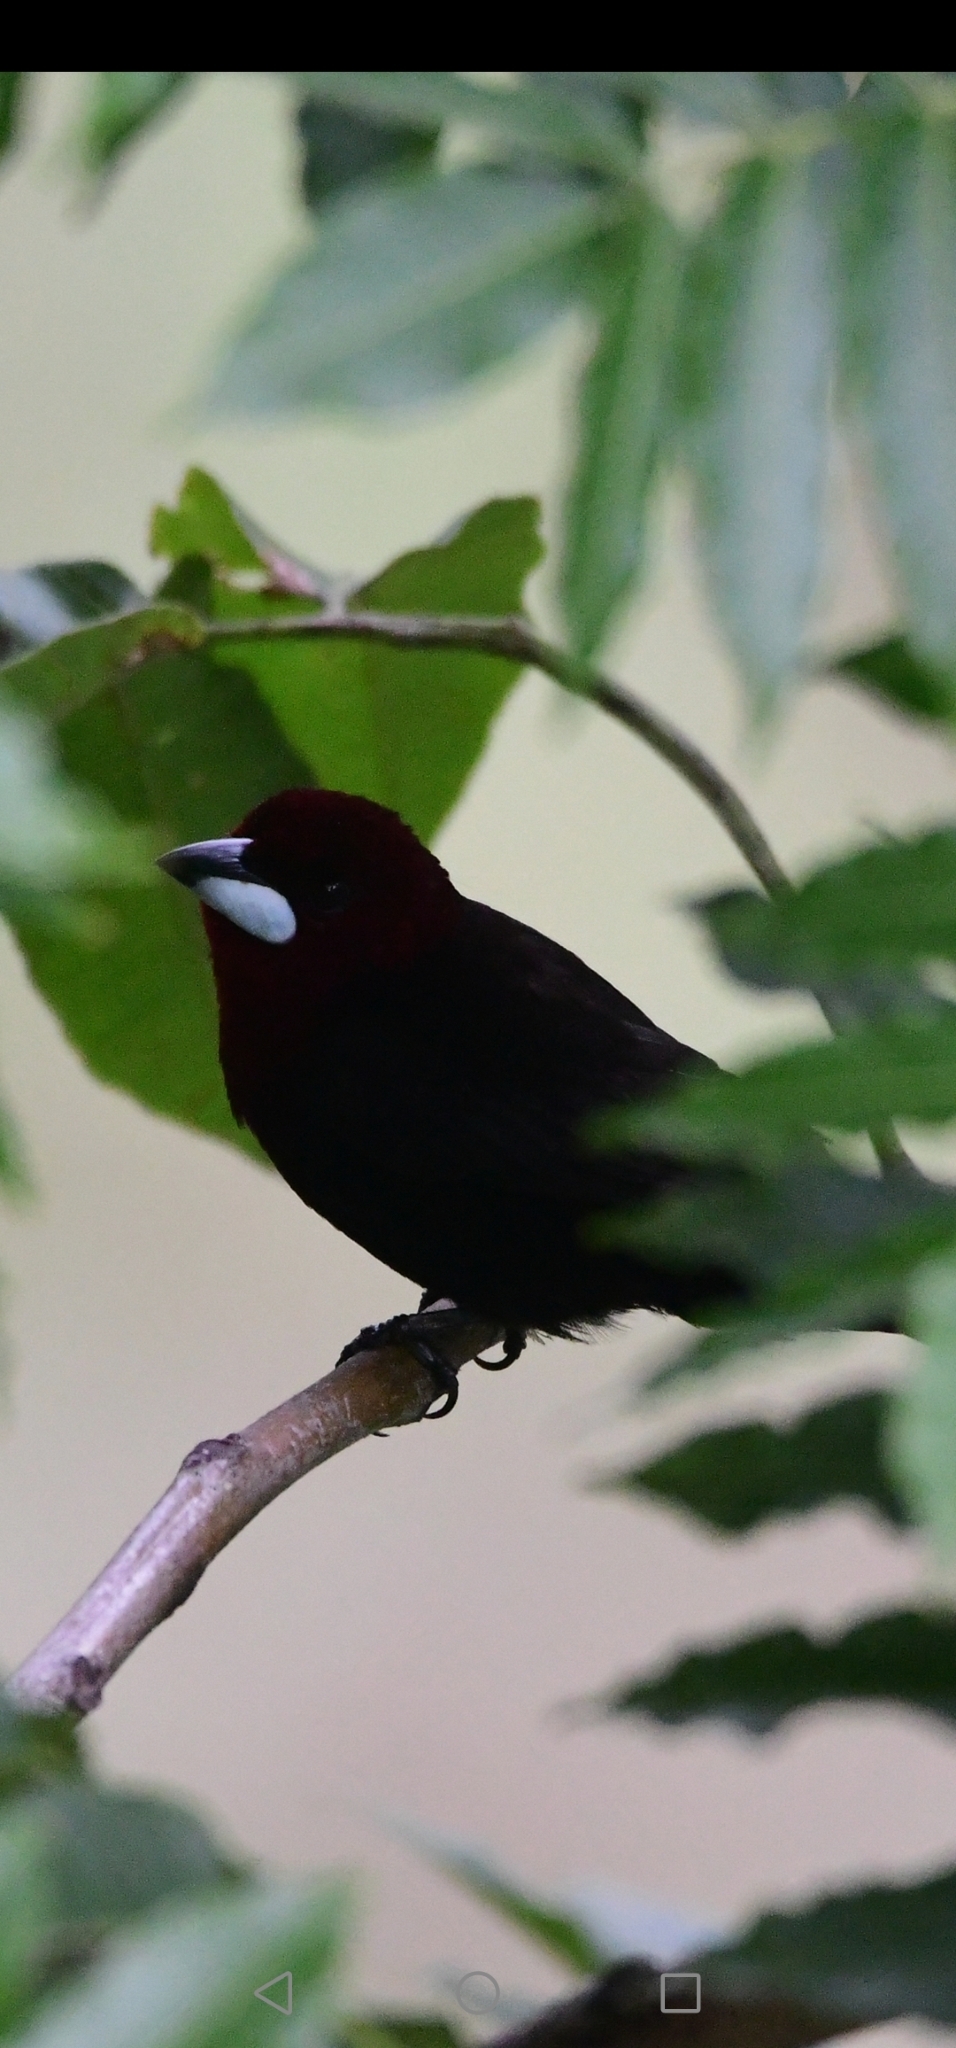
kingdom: Animalia
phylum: Chordata
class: Aves
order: Passeriformes
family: Thraupidae
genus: Ramphocelus
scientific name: Ramphocelus carbo
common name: Silver-beaked tanager
